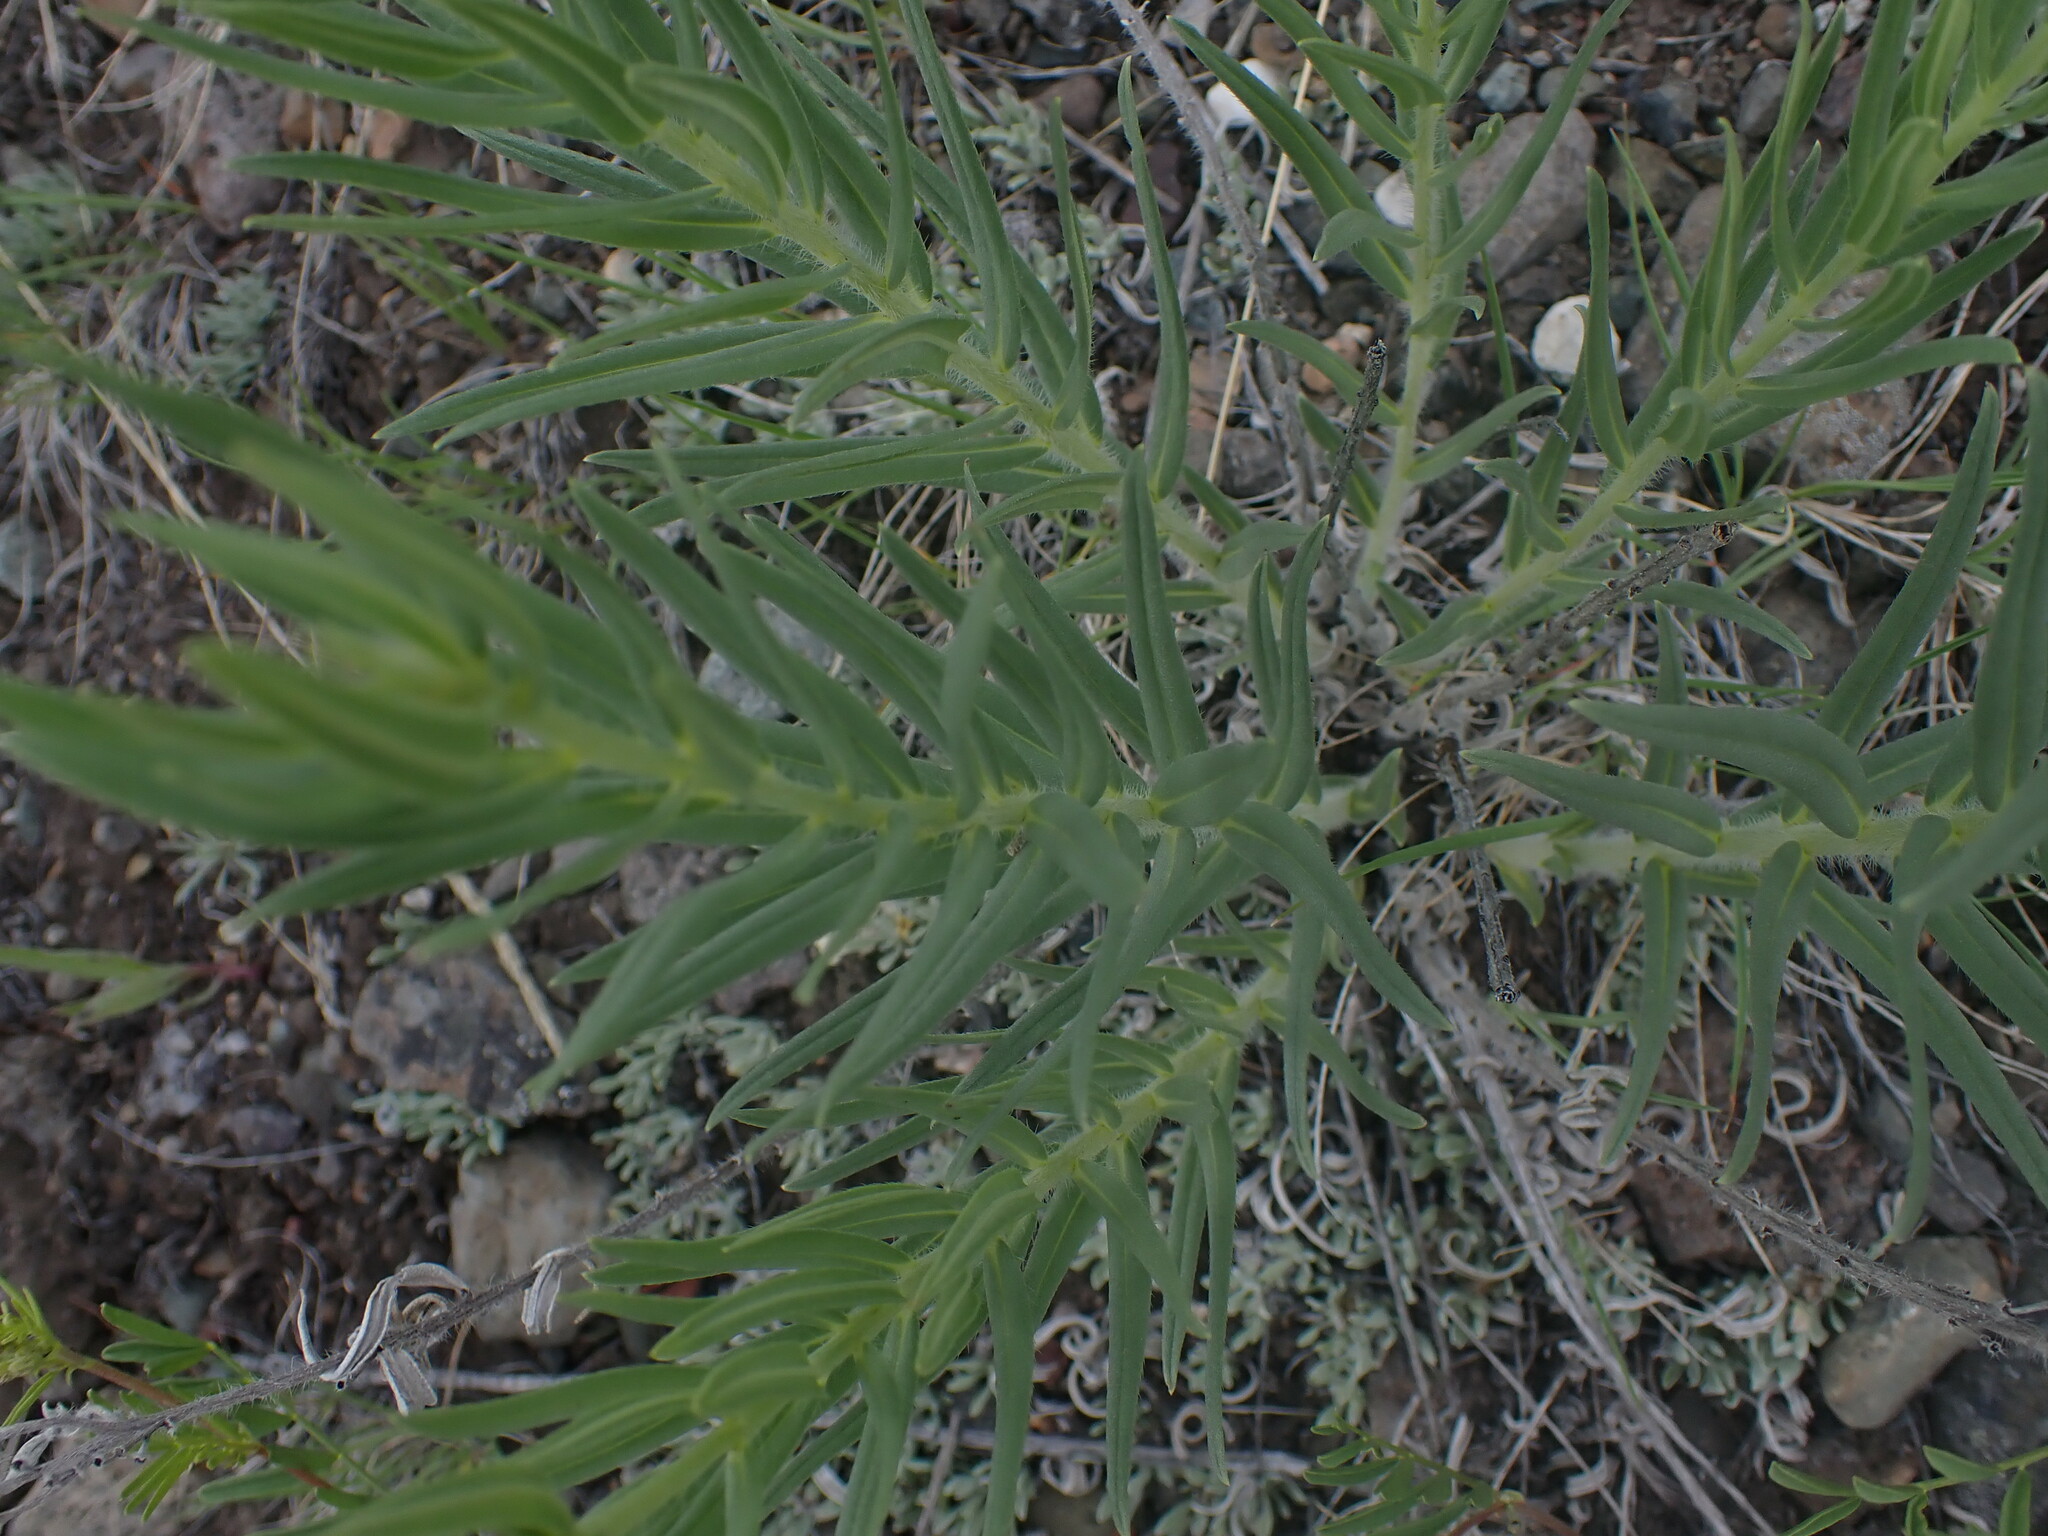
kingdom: Plantae
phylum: Tracheophyta
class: Magnoliopsida
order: Boraginales
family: Boraginaceae
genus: Lithospermum
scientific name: Lithospermum ruderale
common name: Western gromwell
